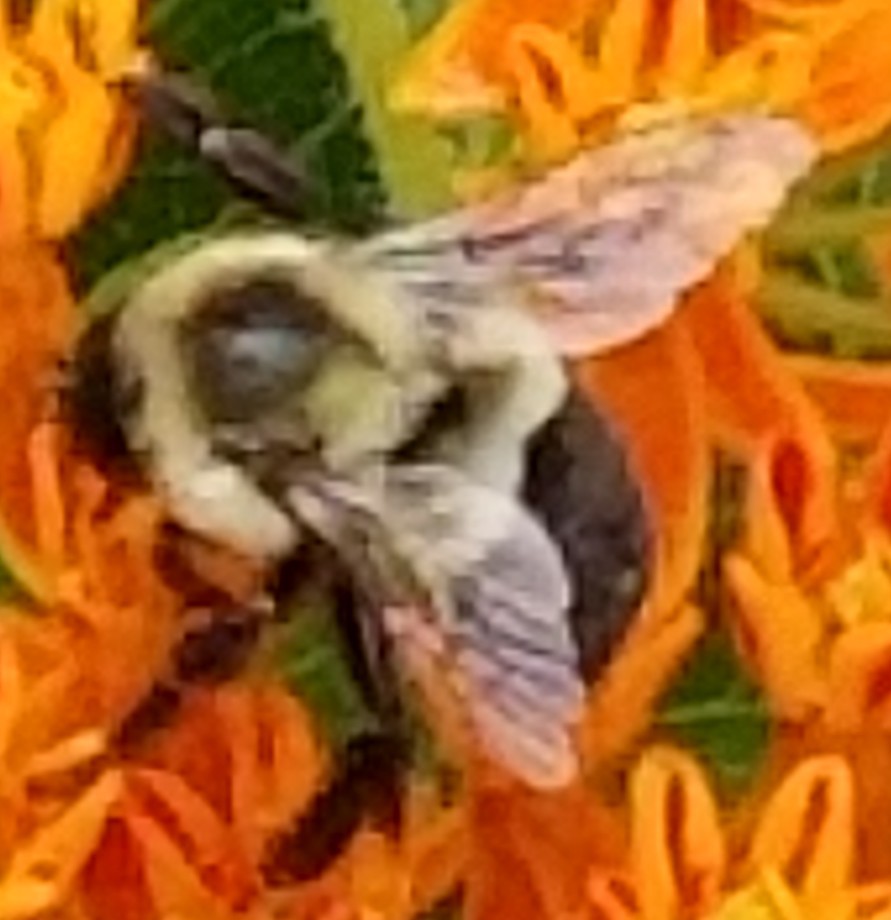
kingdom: Animalia
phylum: Arthropoda
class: Insecta
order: Hymenoptera
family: Apidae
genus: Bombus
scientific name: Bombus impatiens
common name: Common eastern bumble bee
